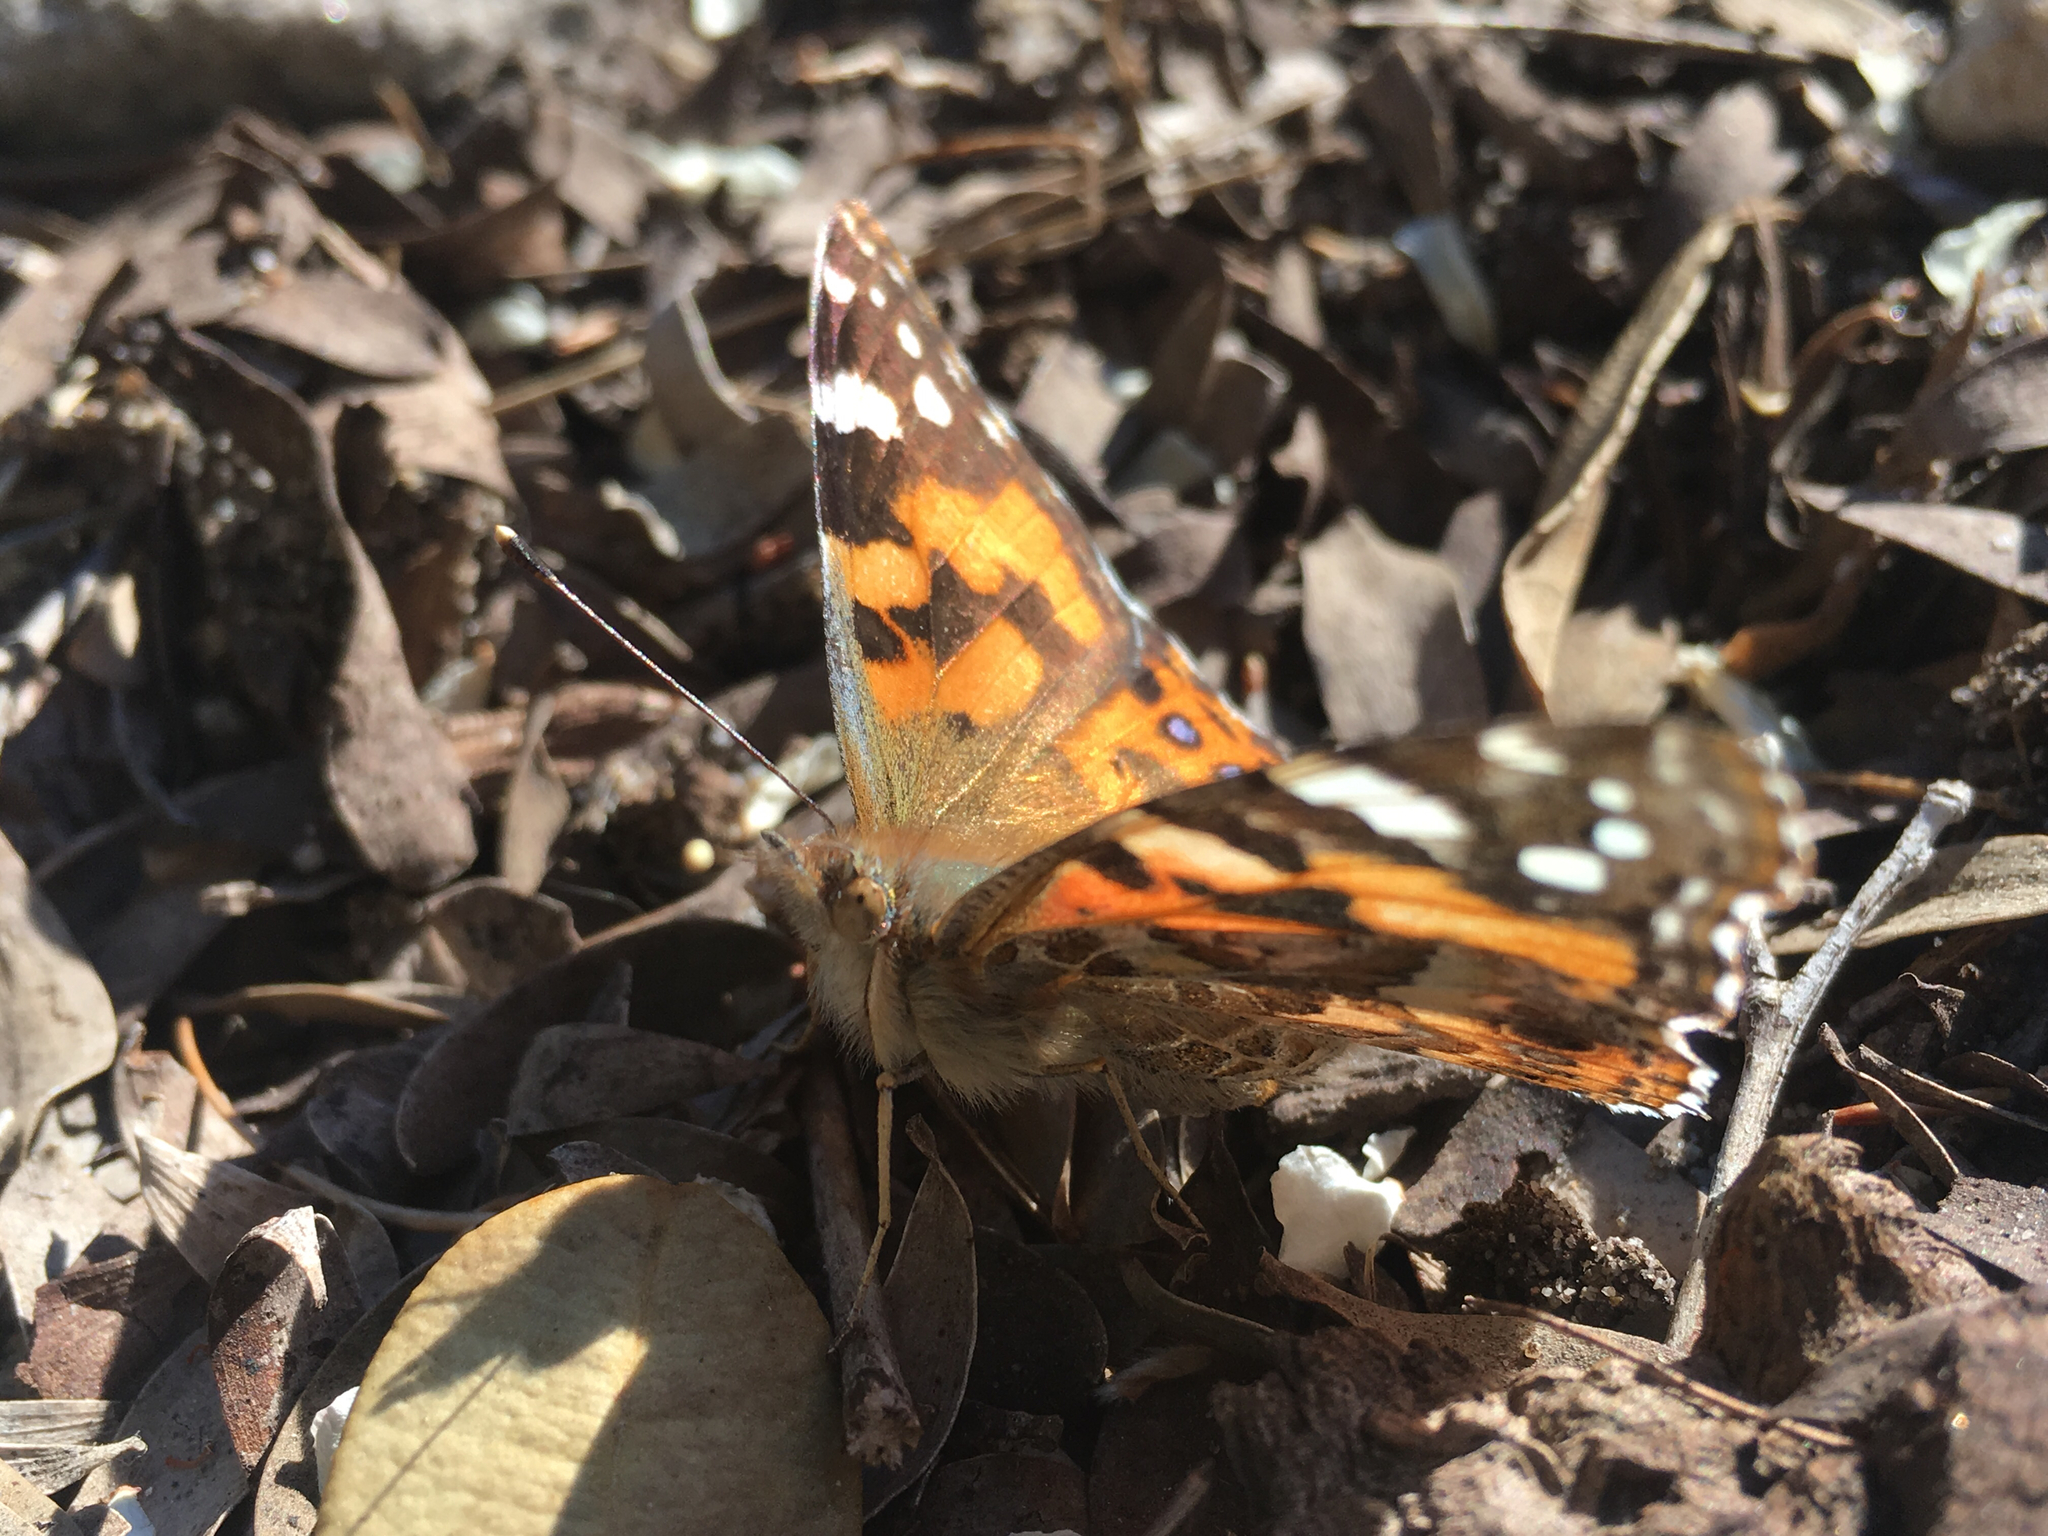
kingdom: Animalia
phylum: Arthropoda
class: Insecta
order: Lepidoptera
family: Nymphalidae
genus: Vanessa
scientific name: Vanessa kershawi
